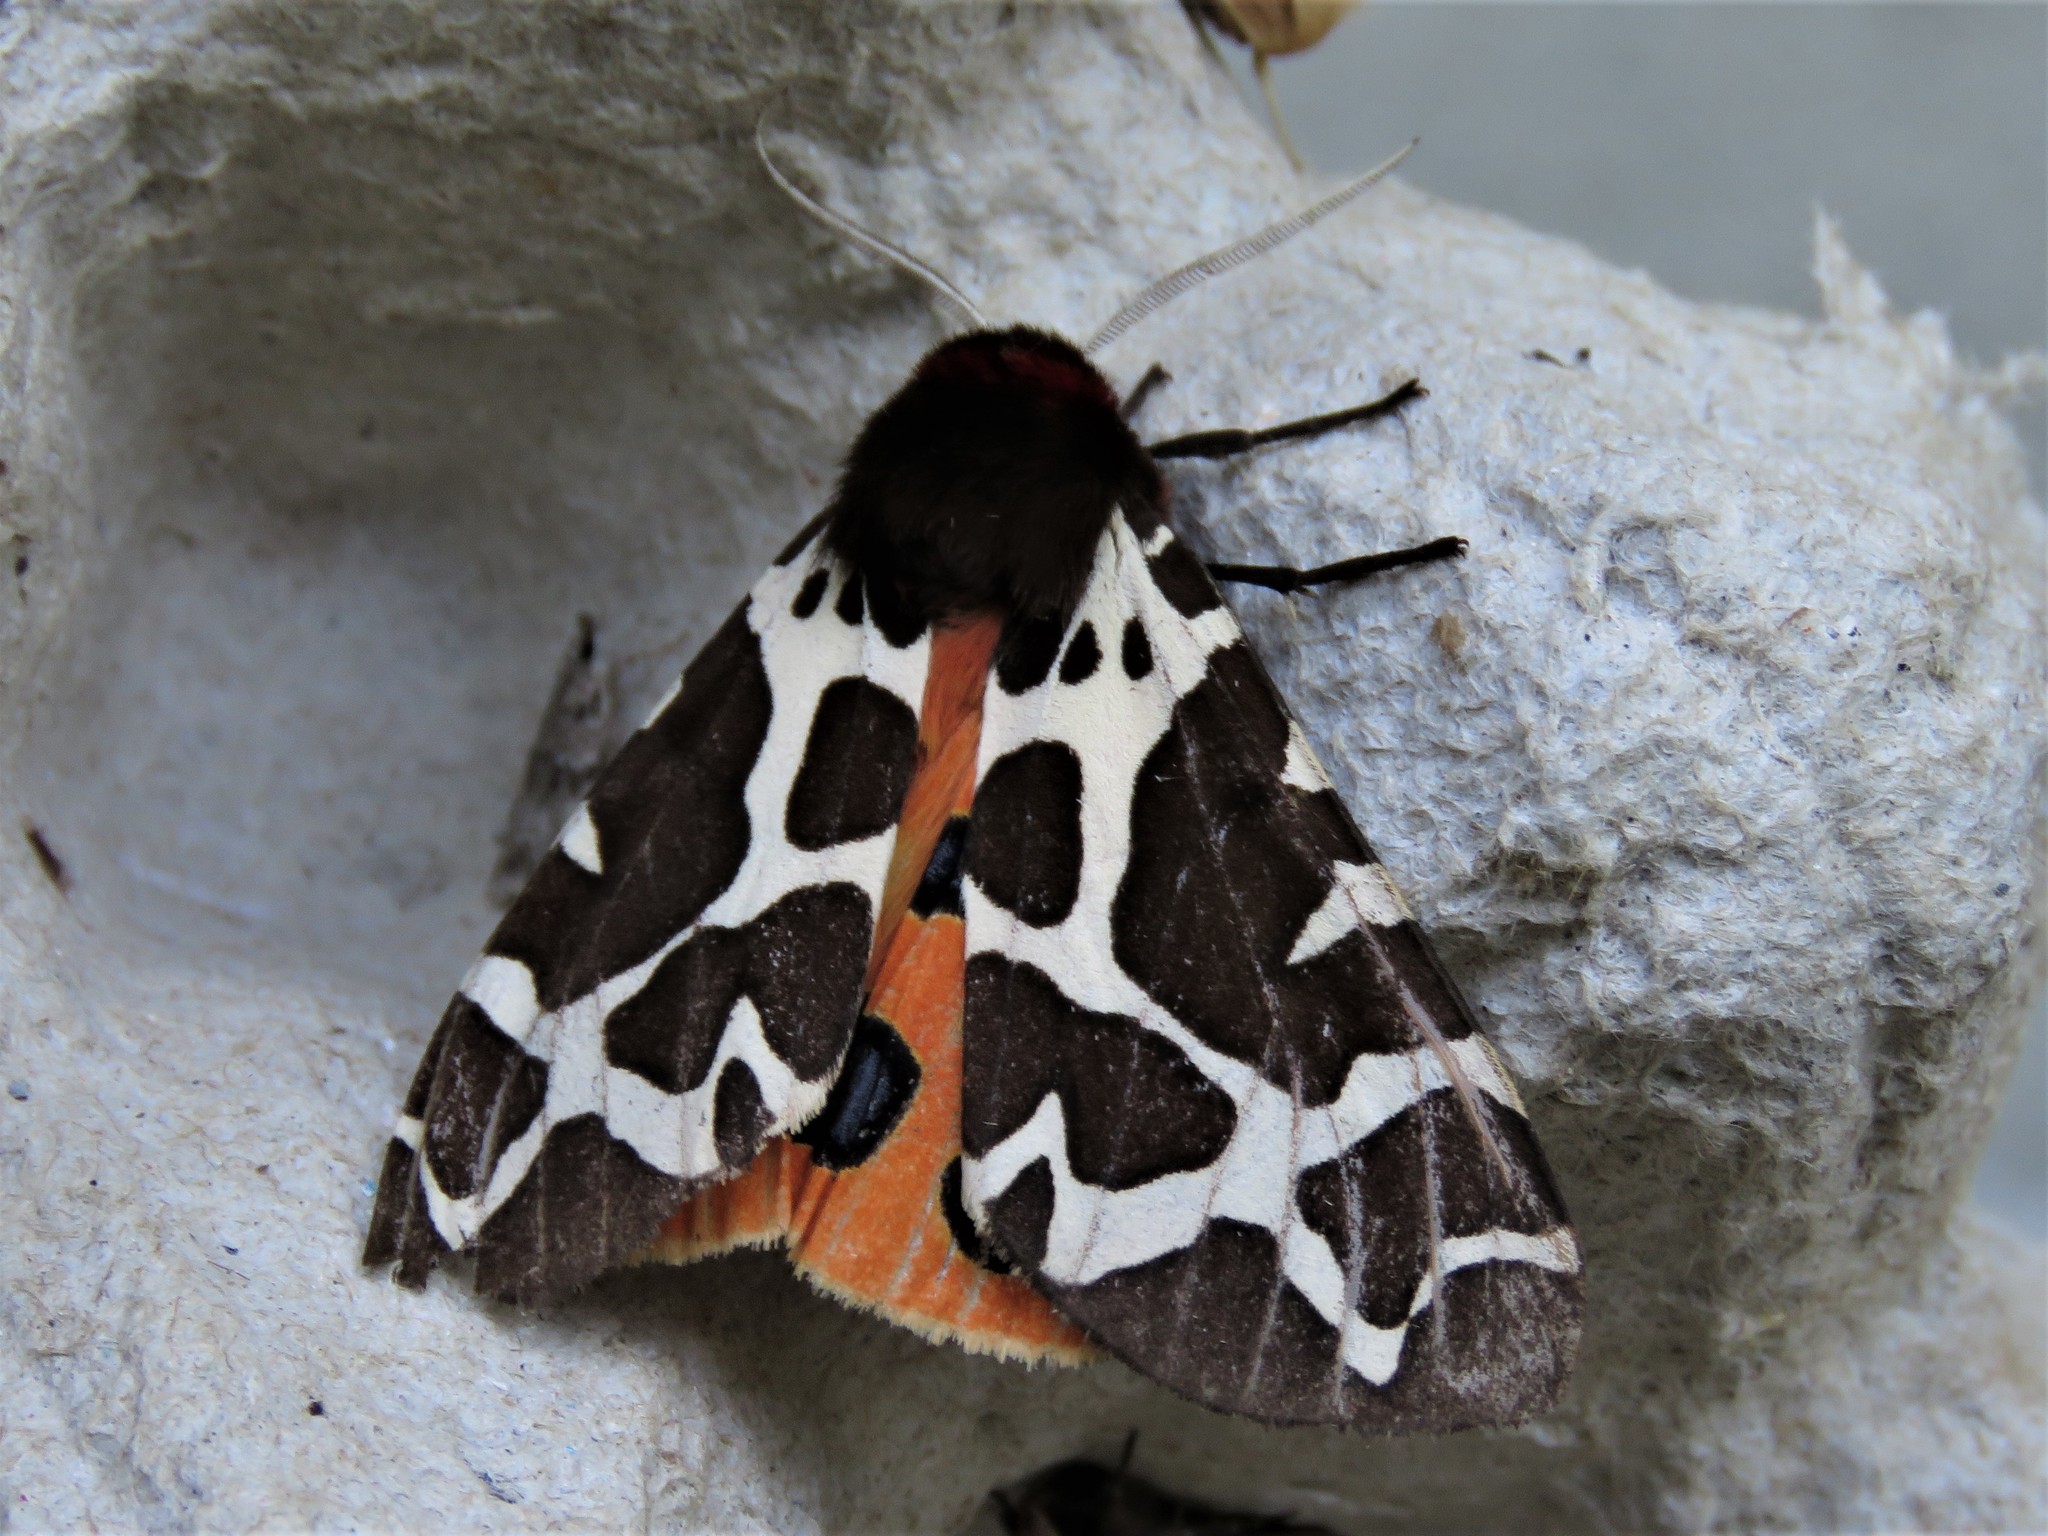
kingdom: Animalia
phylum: Arthropoda
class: Insecta
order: Lepidoptera
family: Erebidae
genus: Arctia
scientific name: Arctia caja
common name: Garden tiger
